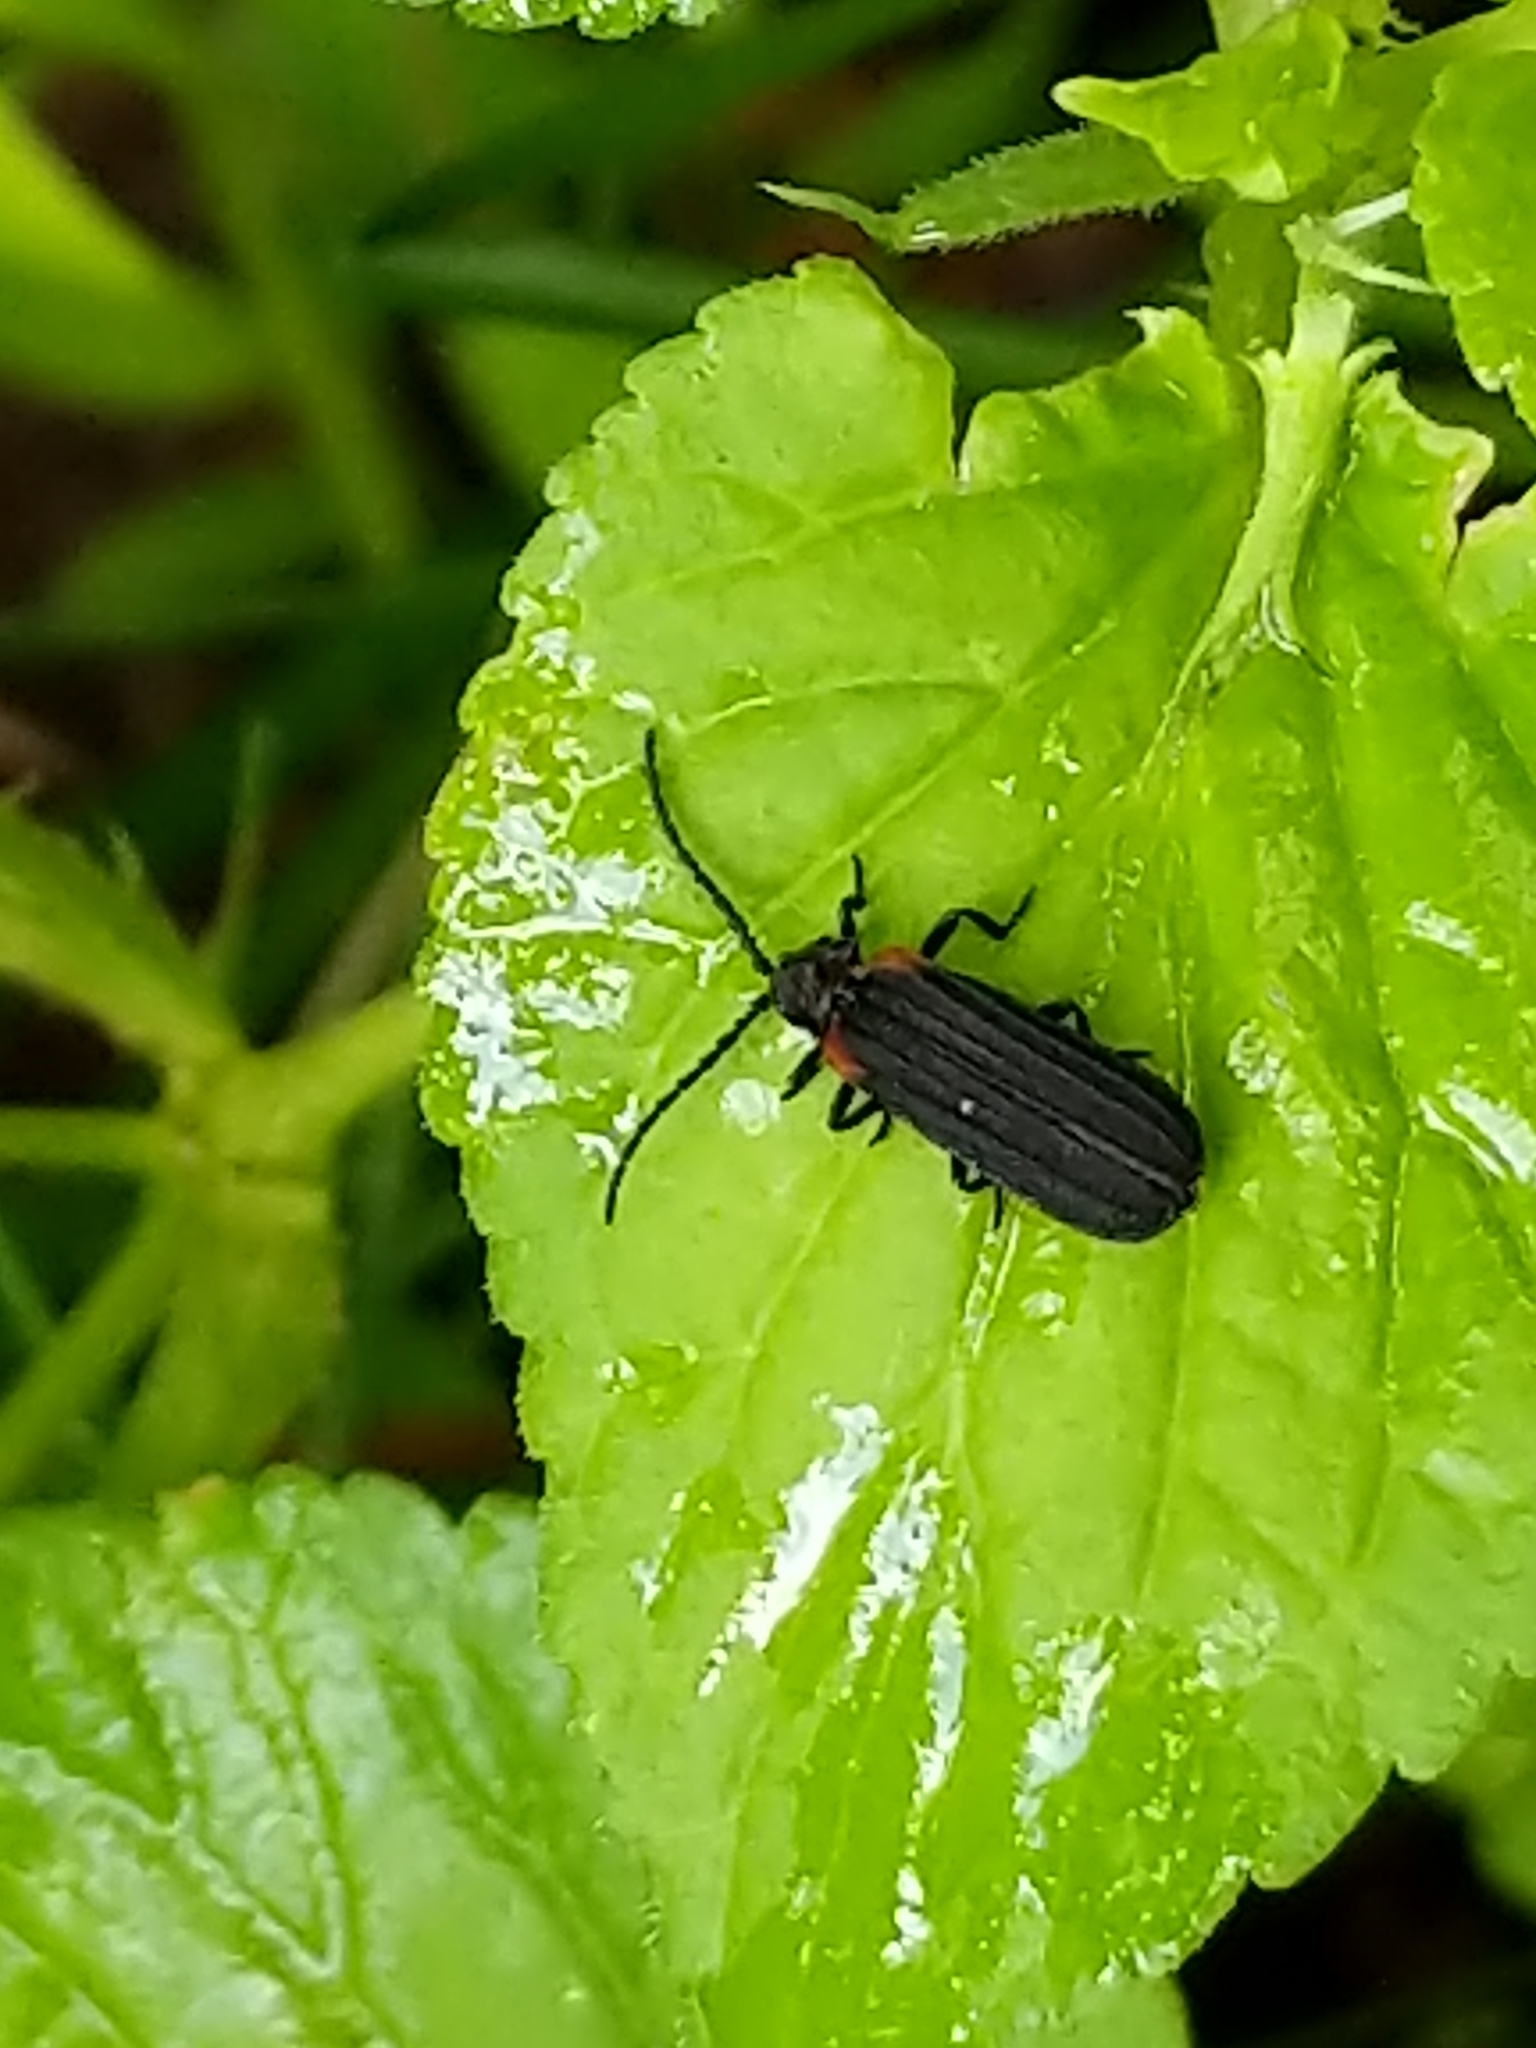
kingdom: Animalia
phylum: Arthropoda
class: Insecta
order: Coleoptera
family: Lycidae
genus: Greenarus
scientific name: Greenarus thoracicus
